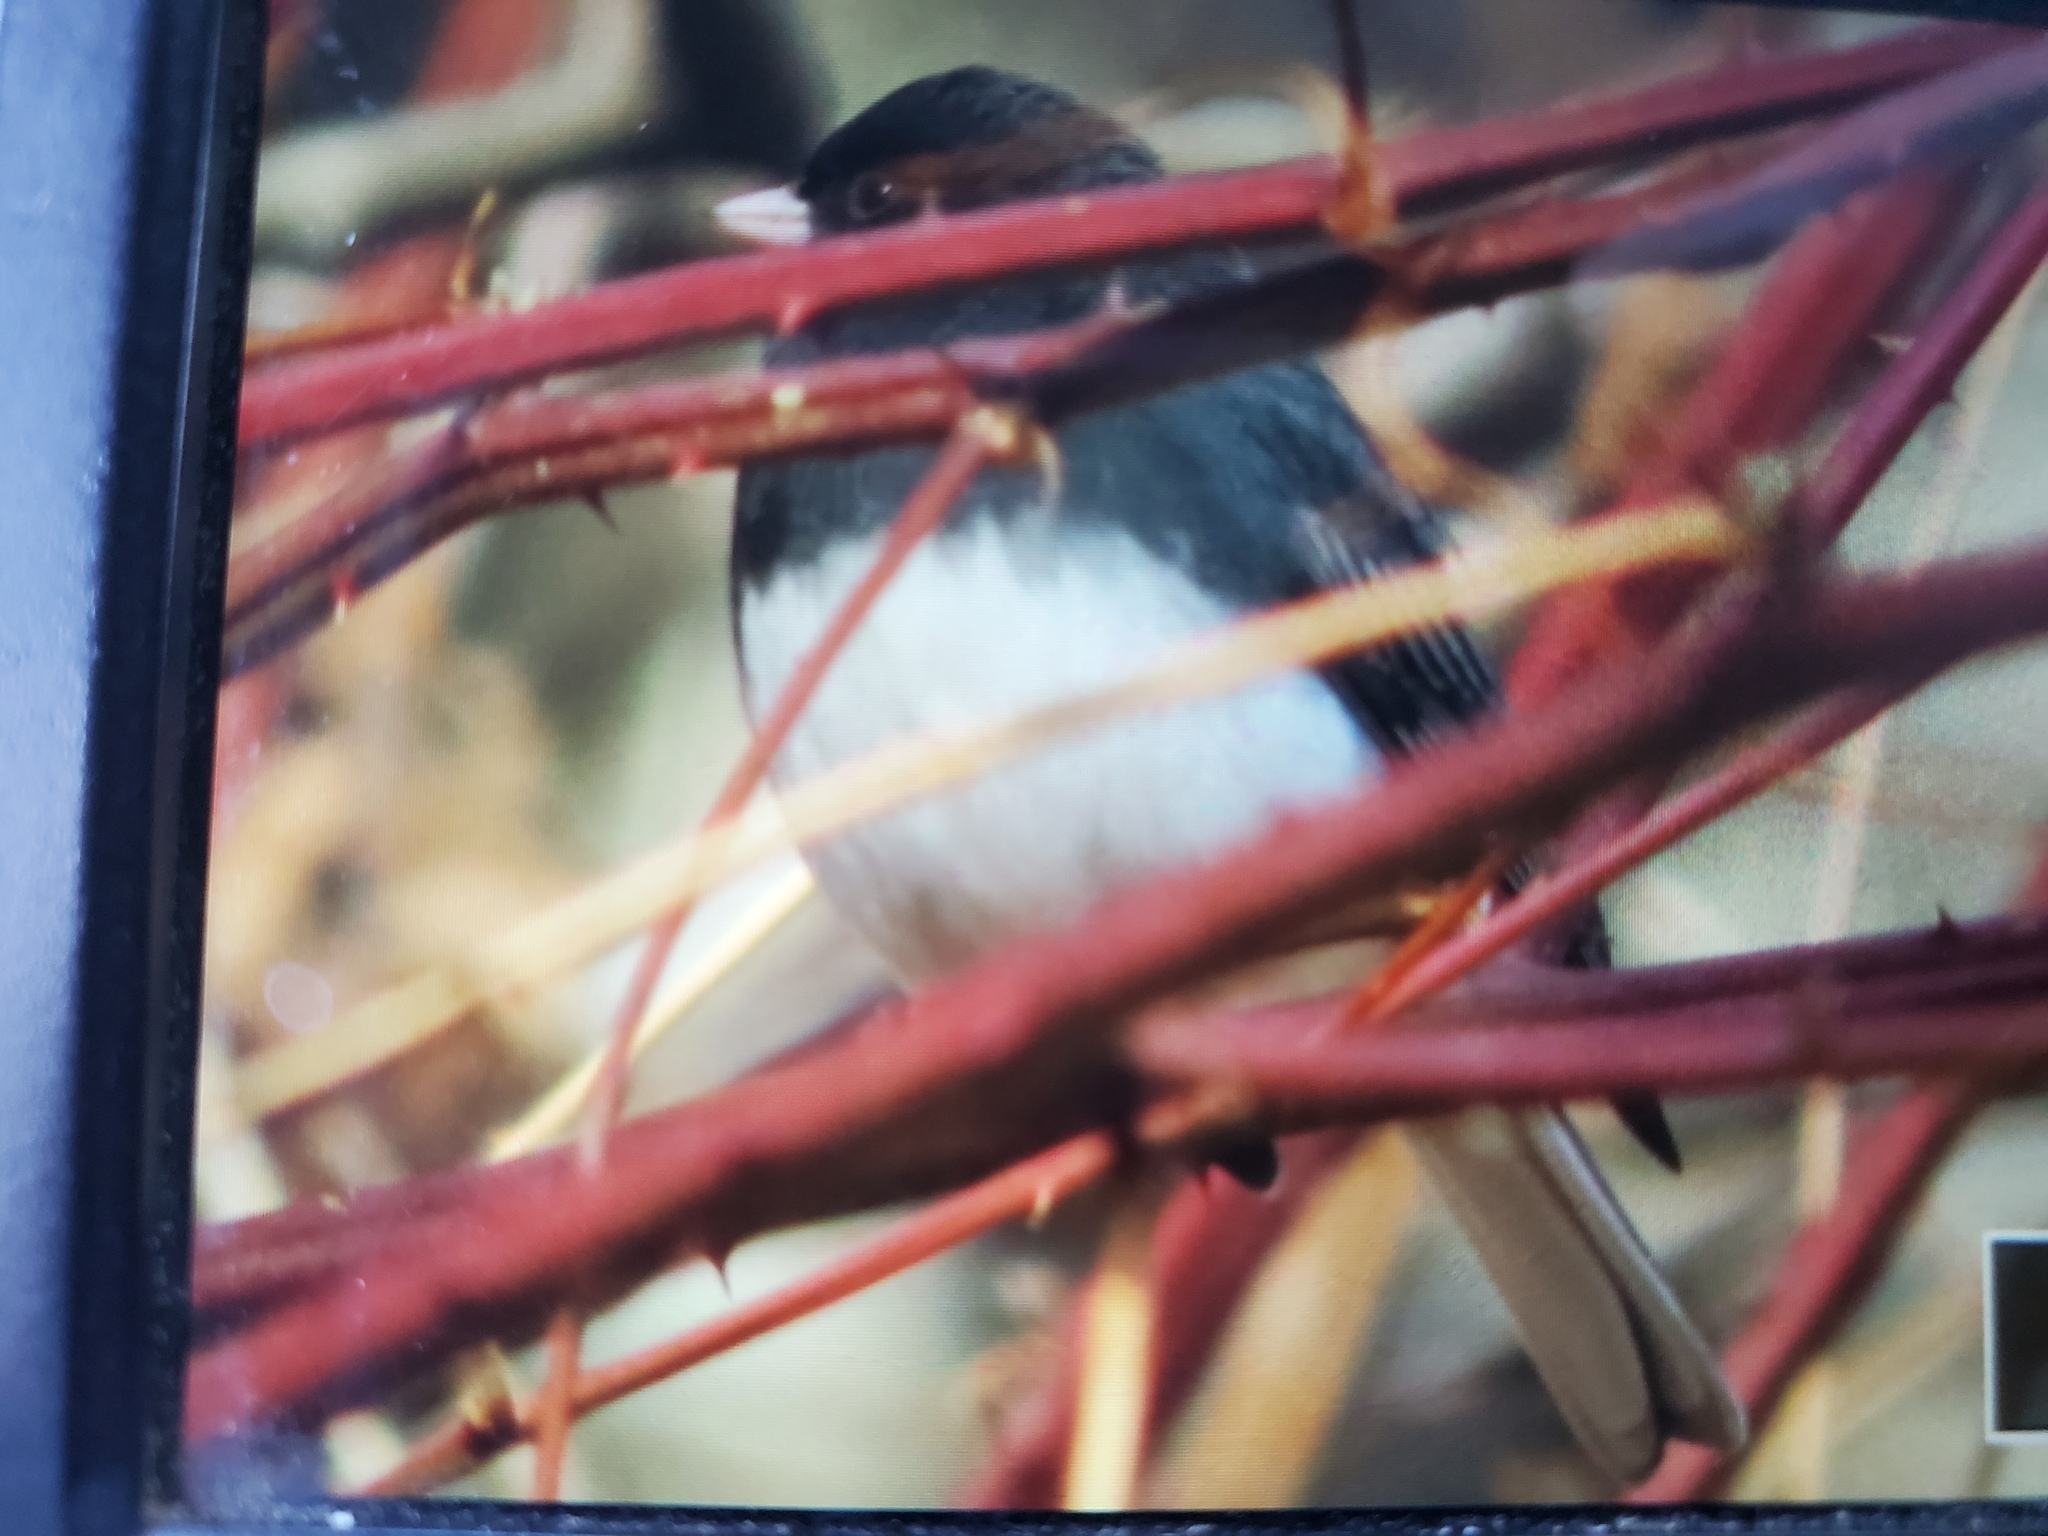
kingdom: Animalia
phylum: Chordata
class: Aves
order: Passeriformes
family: Passerellidae
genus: Junco
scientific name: Junco hyemalis
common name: Dark-eyed junco
